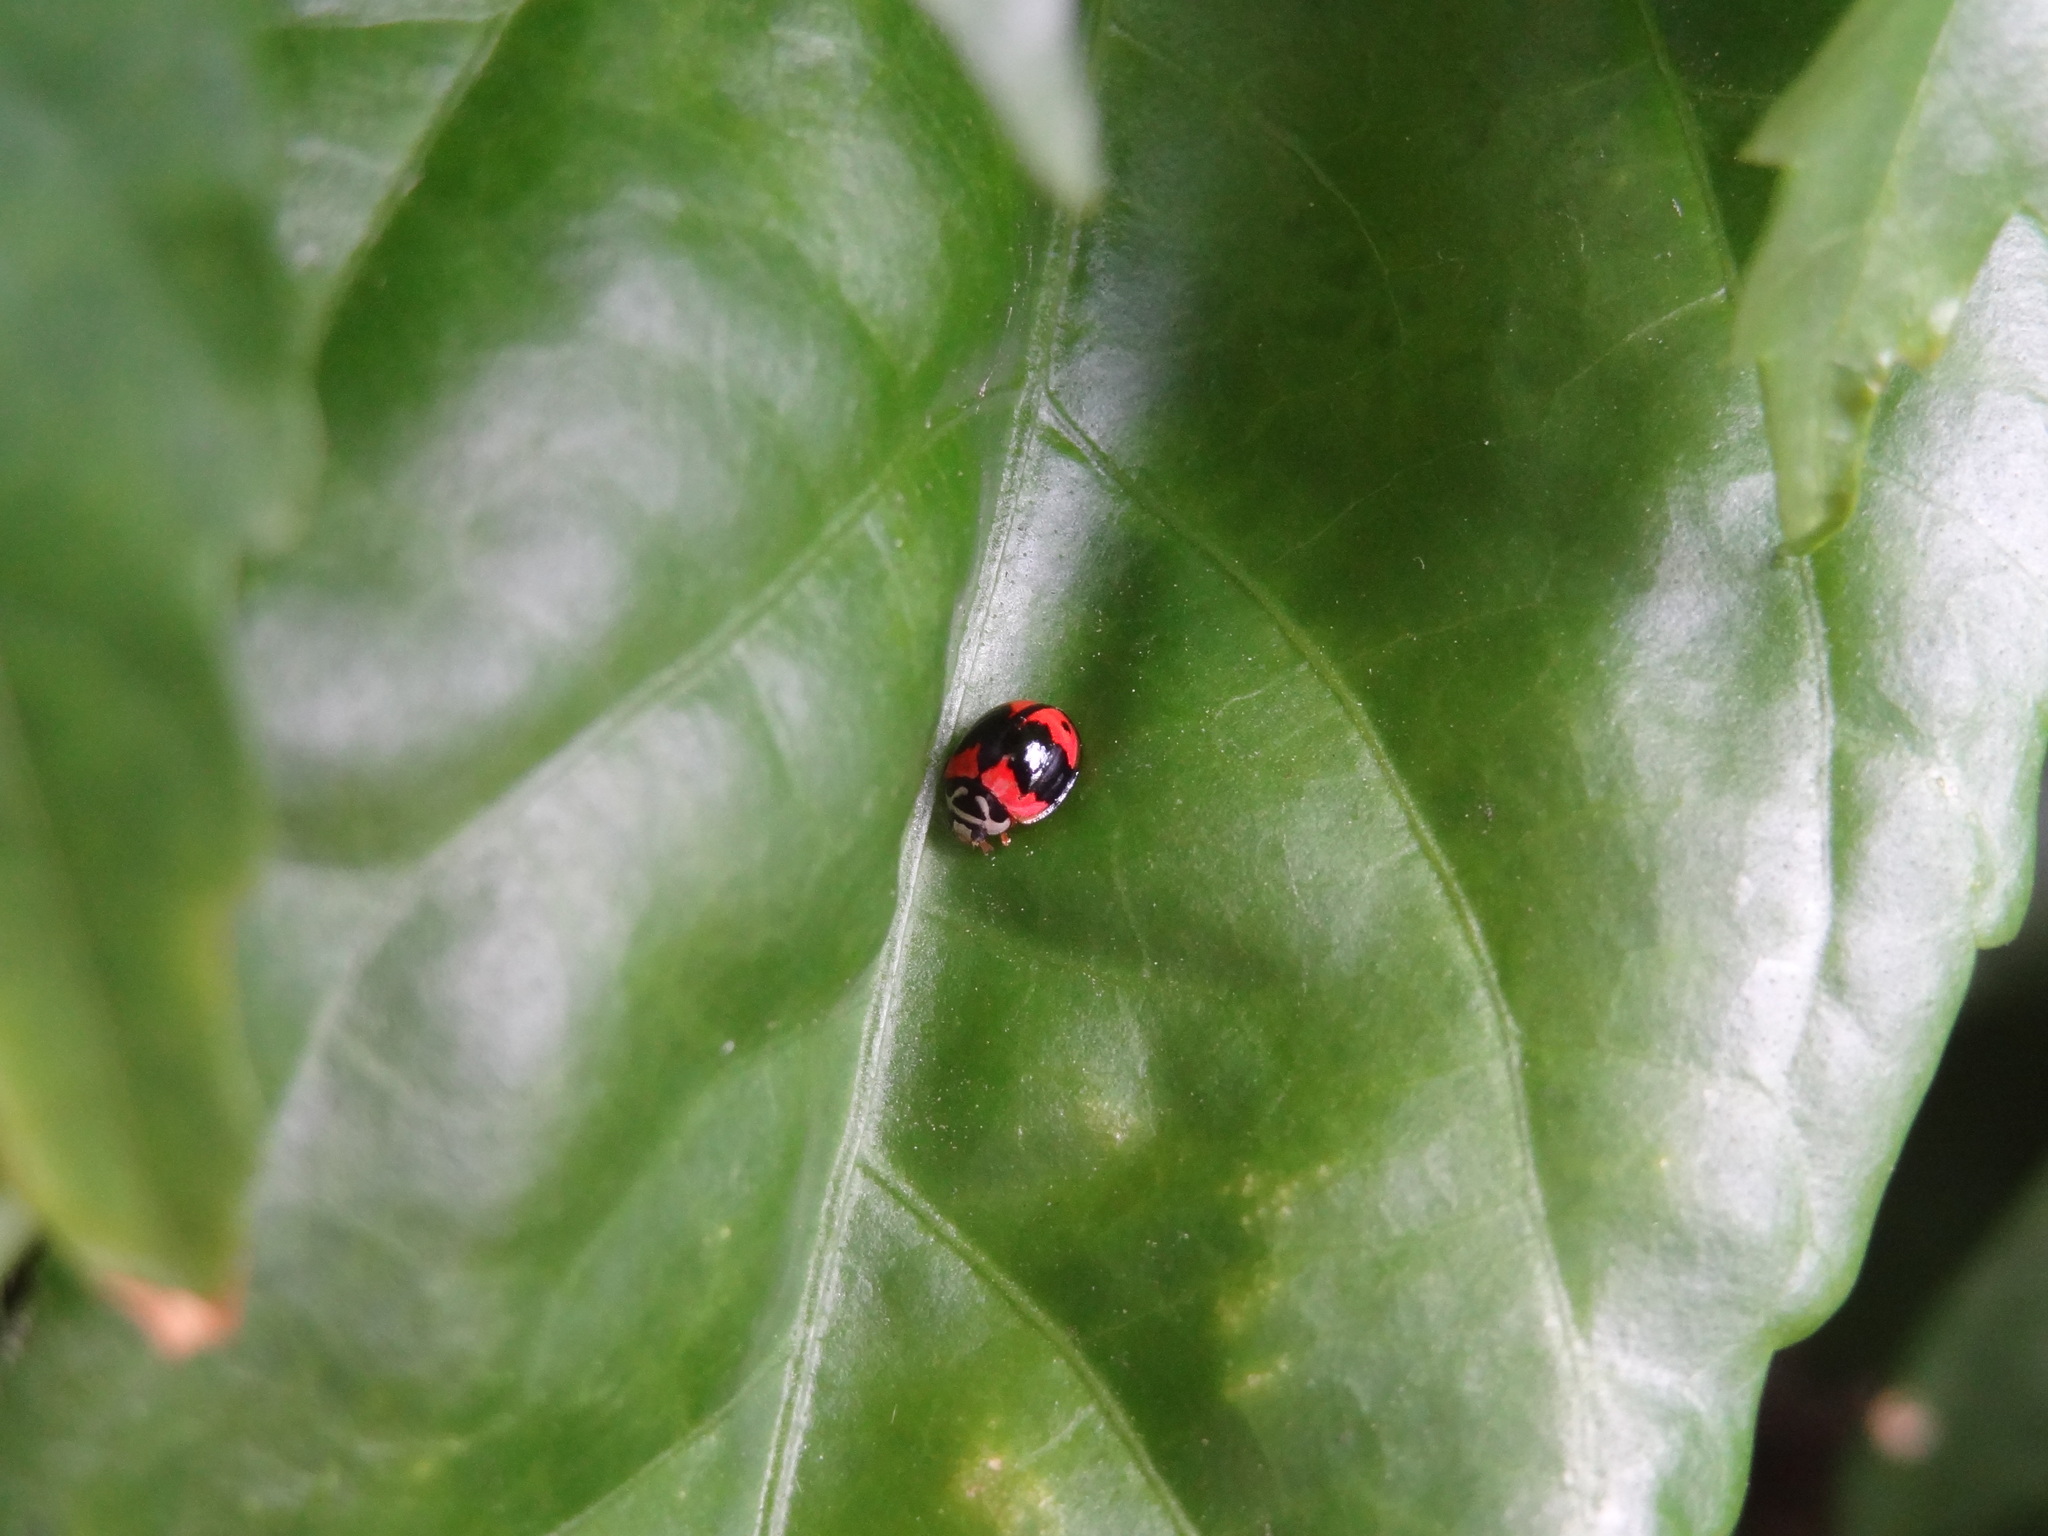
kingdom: Animalia
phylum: Arthropoda
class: Insecta
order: Coleoptera
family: Coccinellidae
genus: Cheilomenes
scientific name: Cheilomenes sexmaculata
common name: Ladybird beetle
